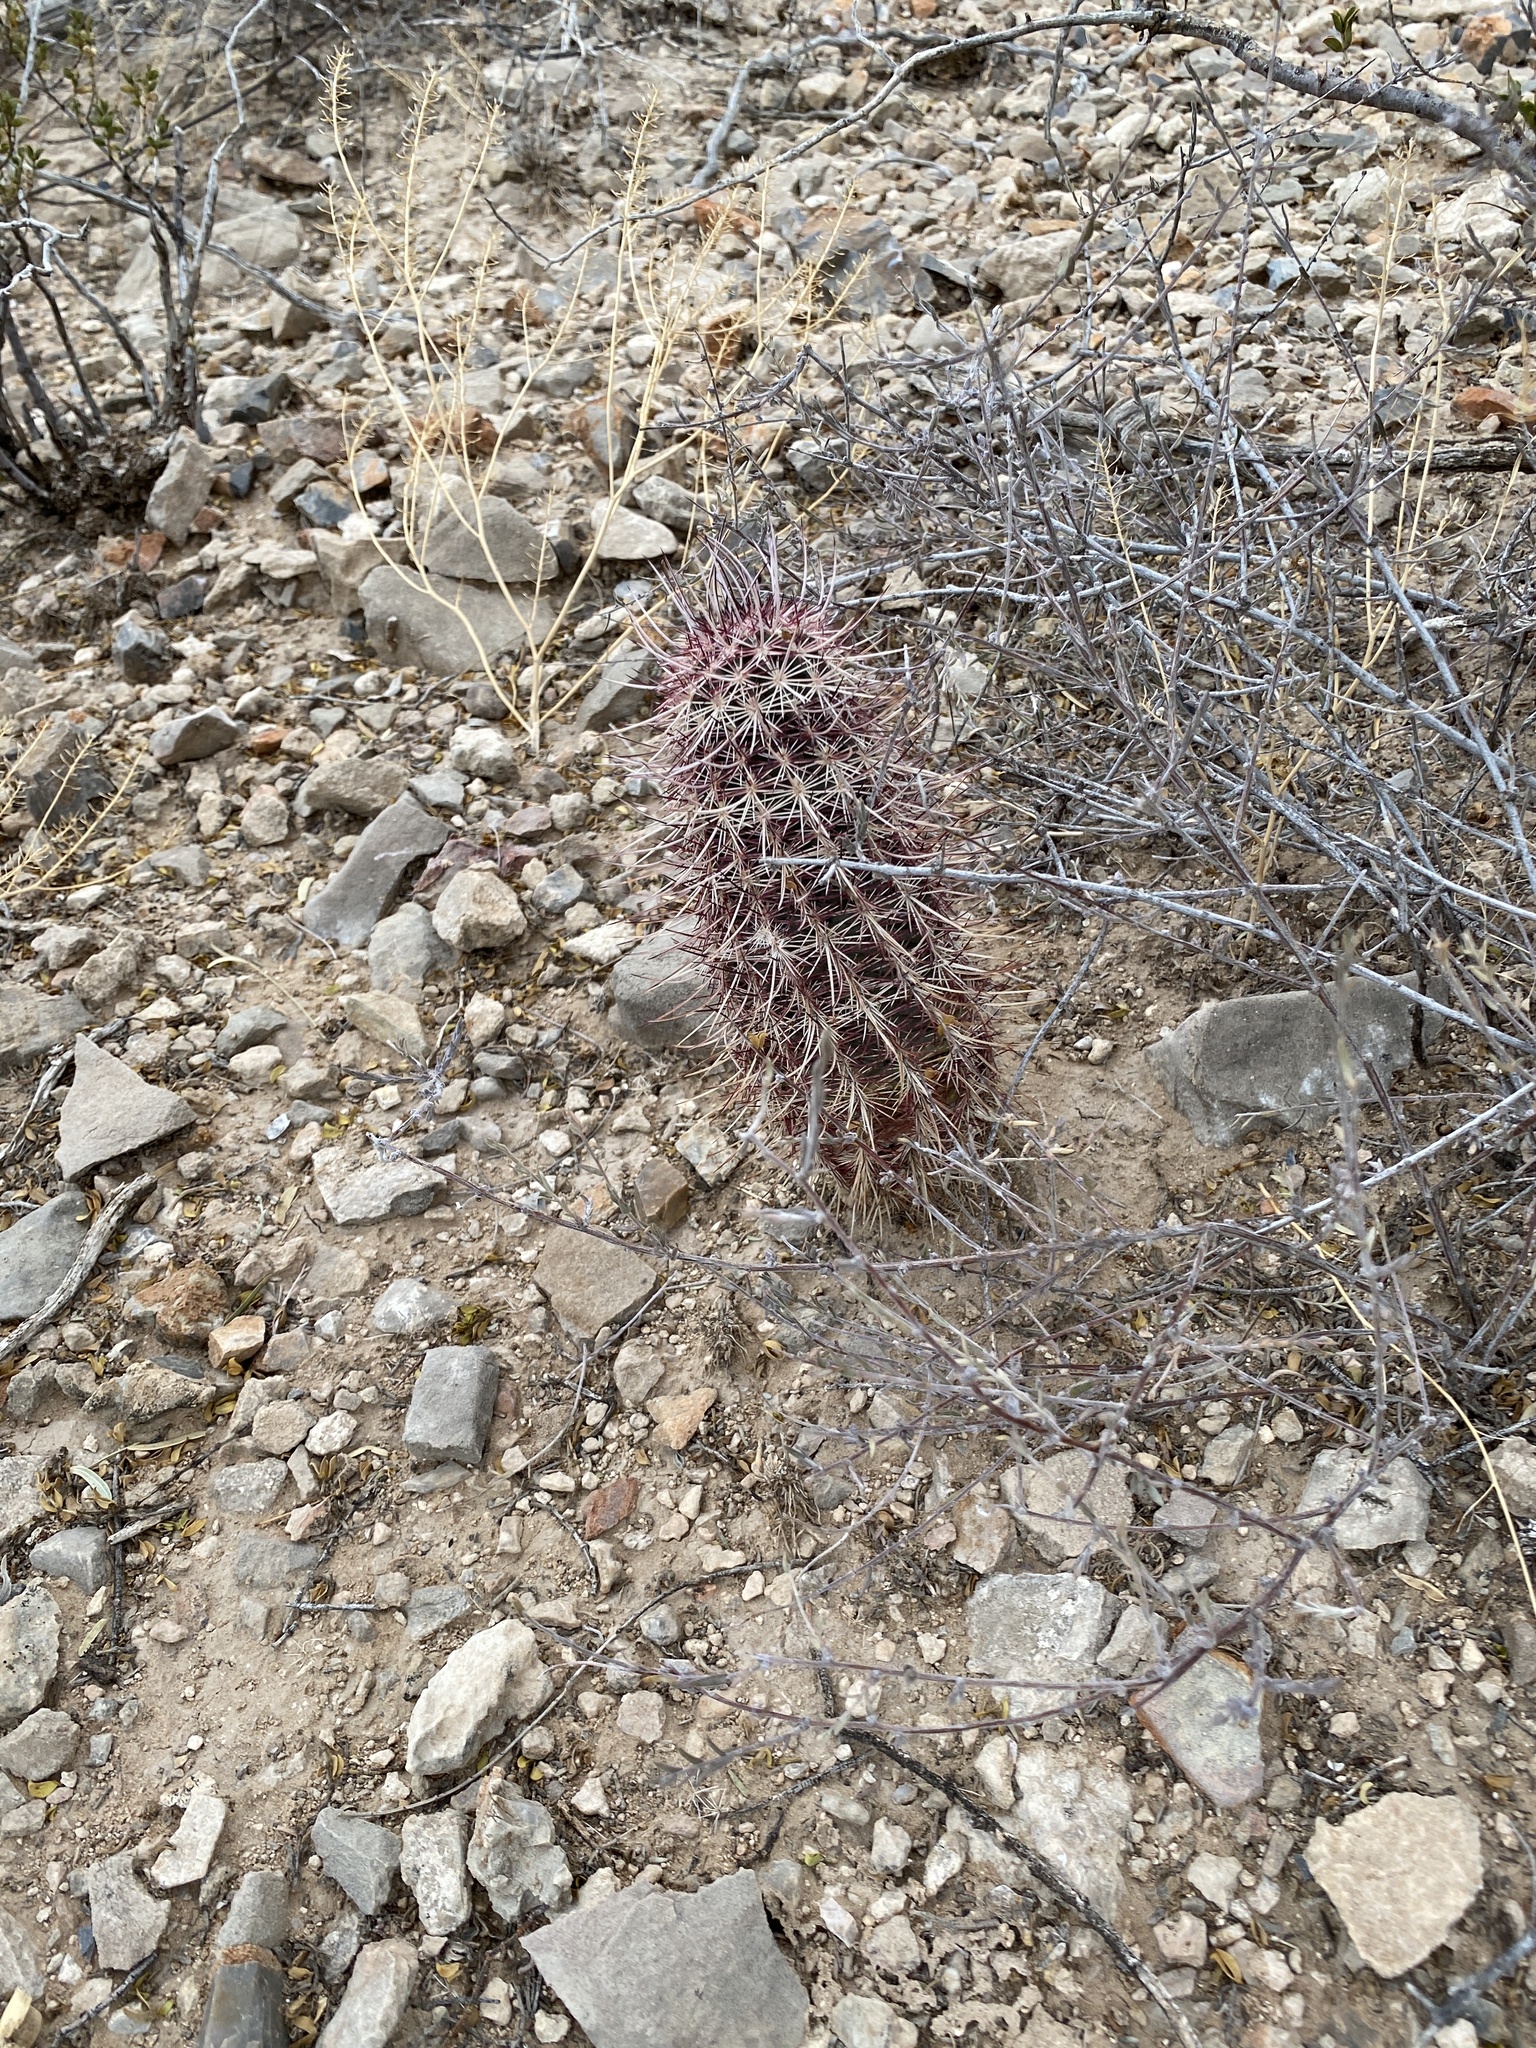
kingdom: Plantae
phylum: Tracheophyta
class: Magnoliopsida
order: Caryophyllales
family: Cactaceae
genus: Echinocereus
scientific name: Echinocereus viridiflorus
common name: Nylon hedgehog cactus
